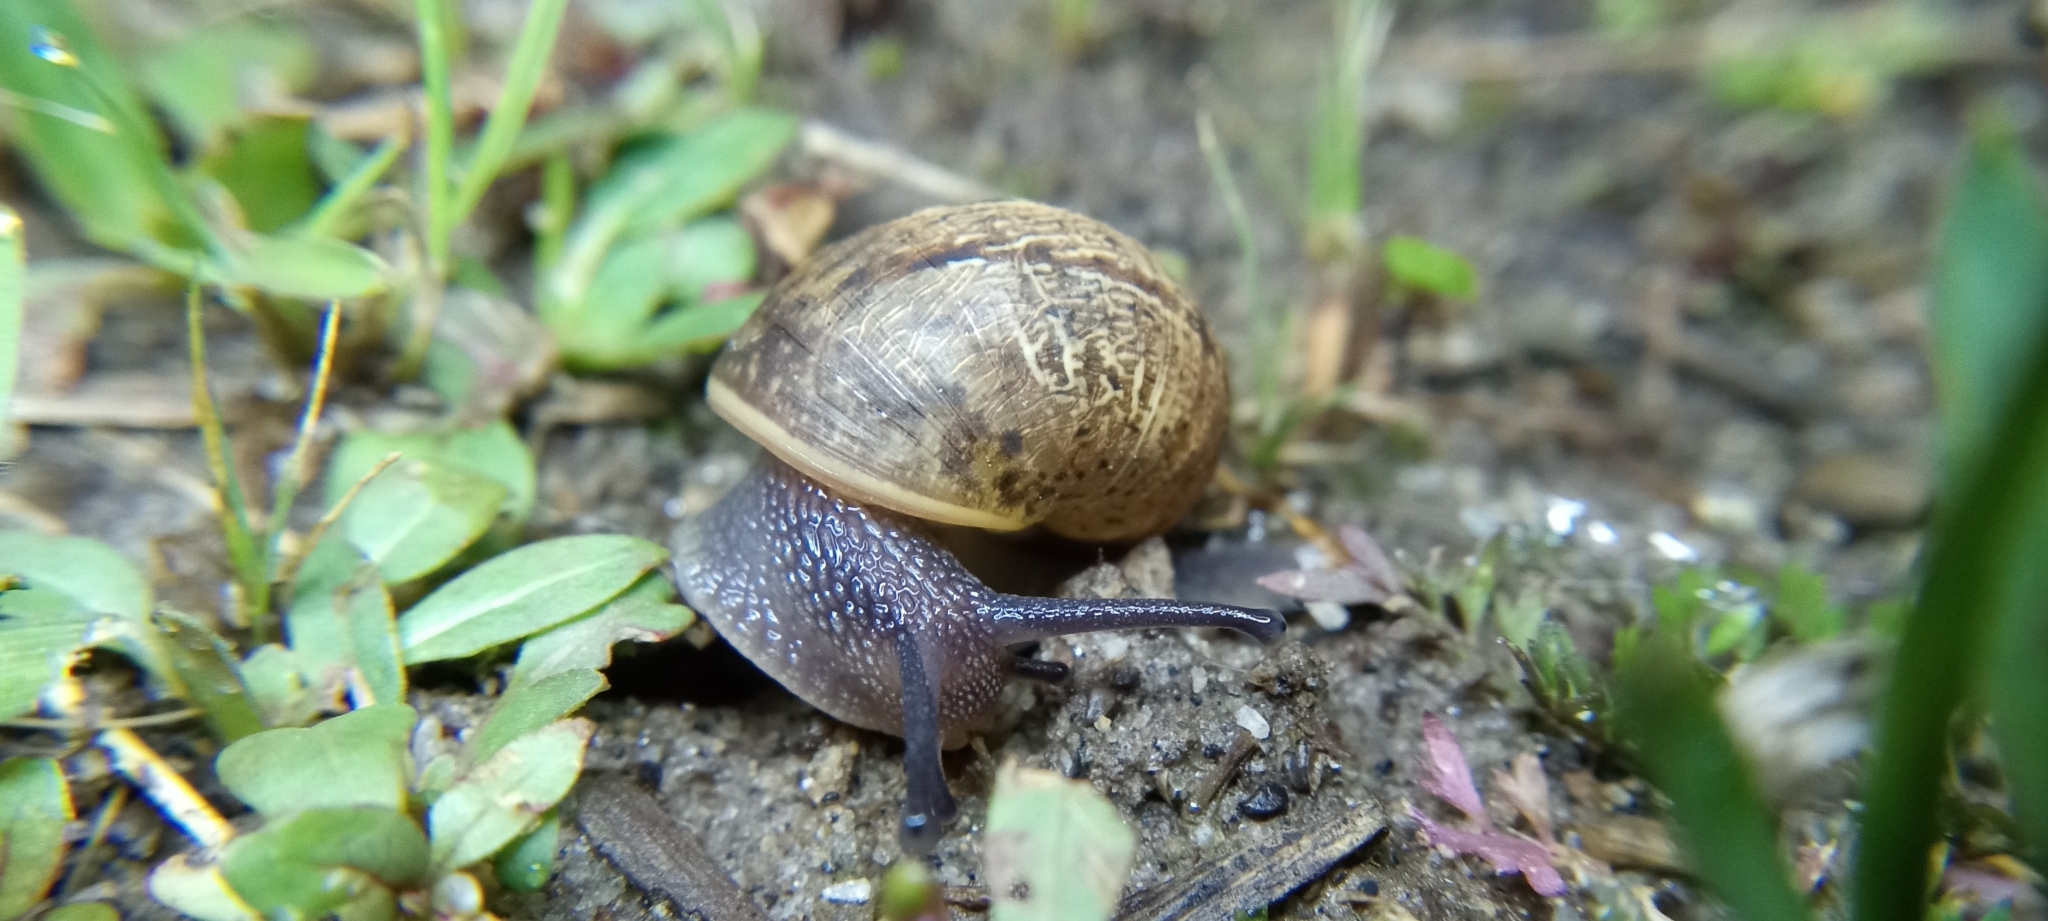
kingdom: Animalia
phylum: Mollusca
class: Gastropoda
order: Stylommatophora
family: Helicidae
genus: Cornu
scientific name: Cornu aspersum
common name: Brown garden snail
